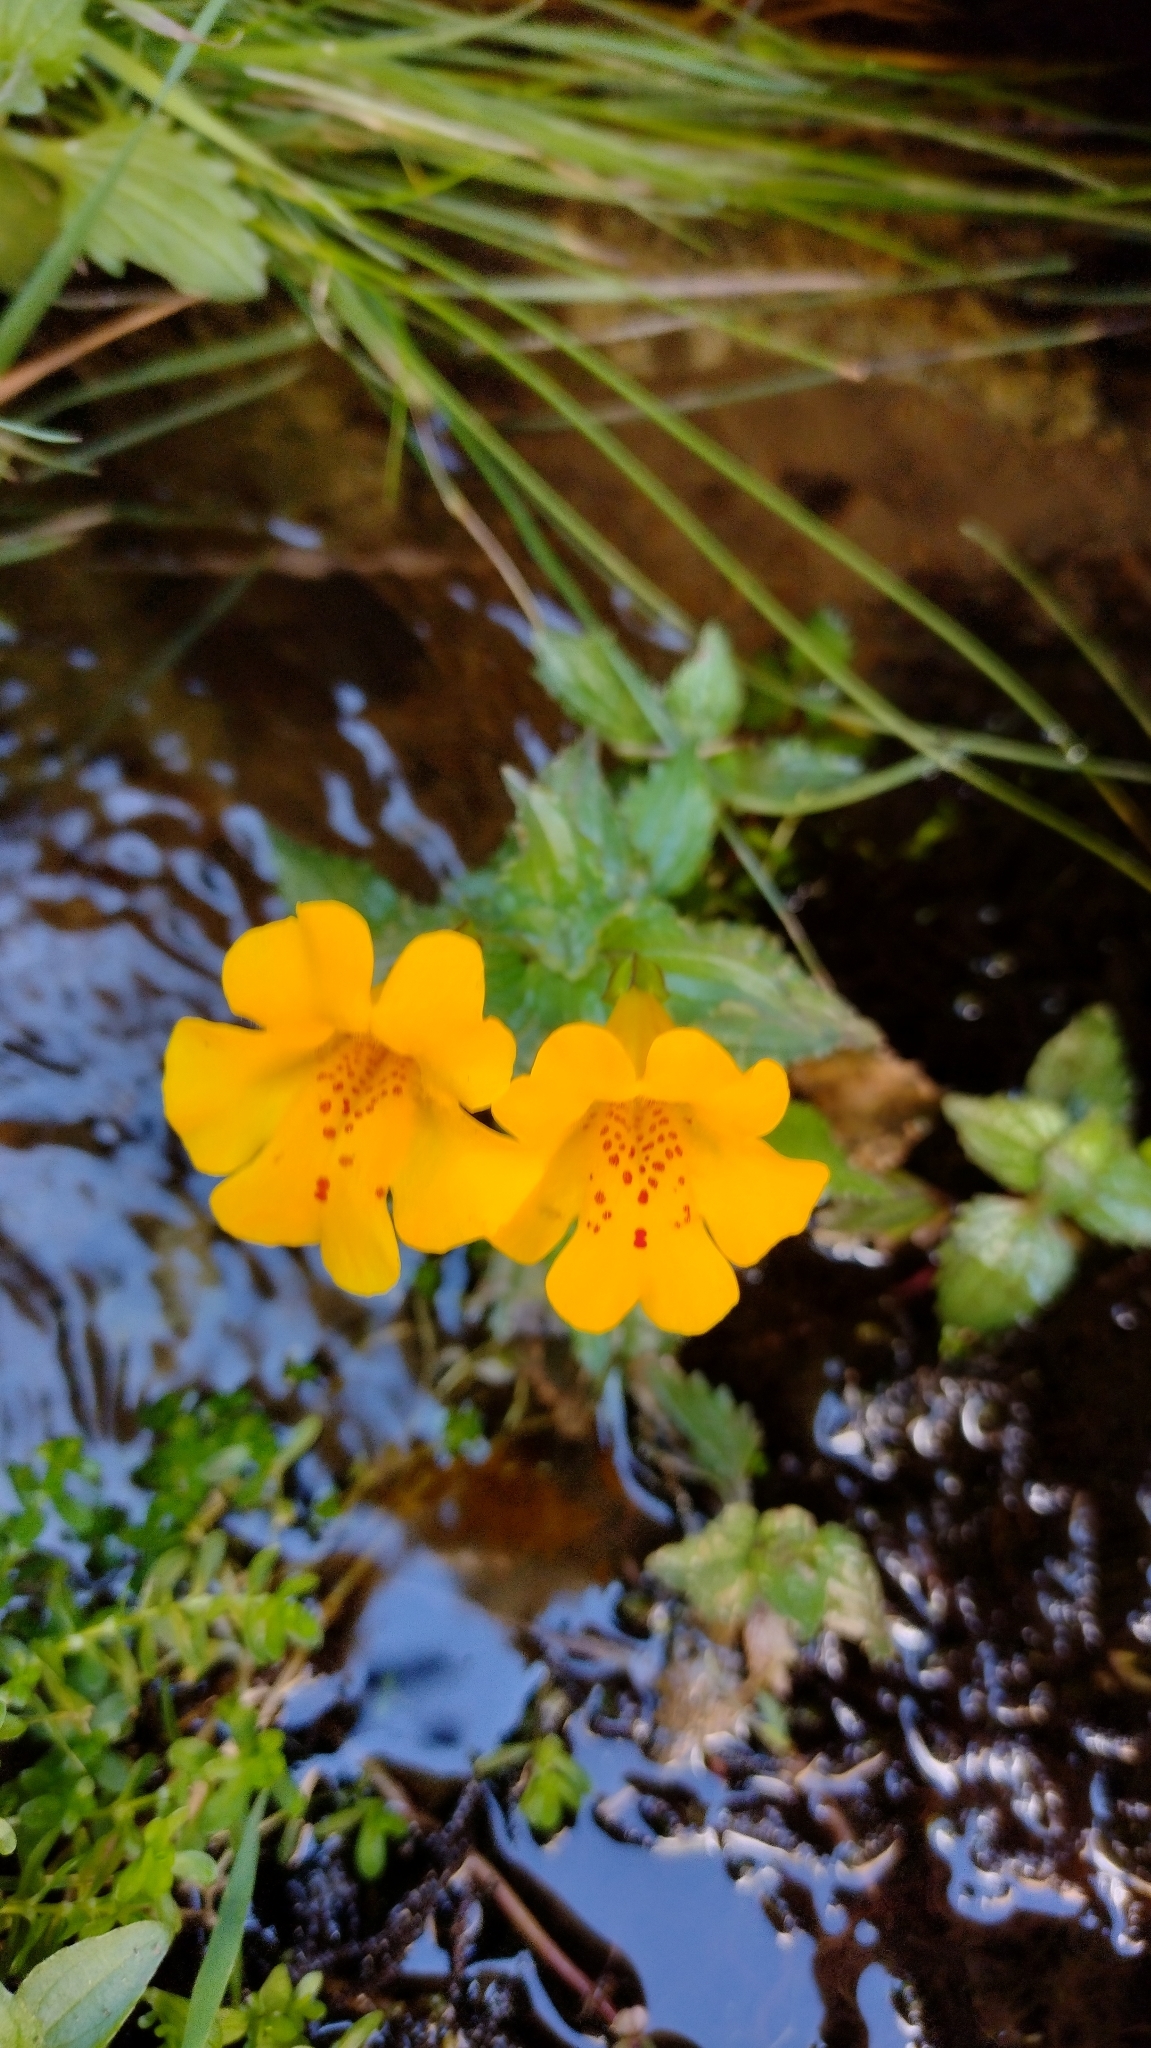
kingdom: Plantae
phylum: Tracheophyta
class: Magnoliopsida
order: Lamiales
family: Phrymaceae
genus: Erythranthe
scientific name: Erythranthe lutea
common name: Yellow monkey-flower
